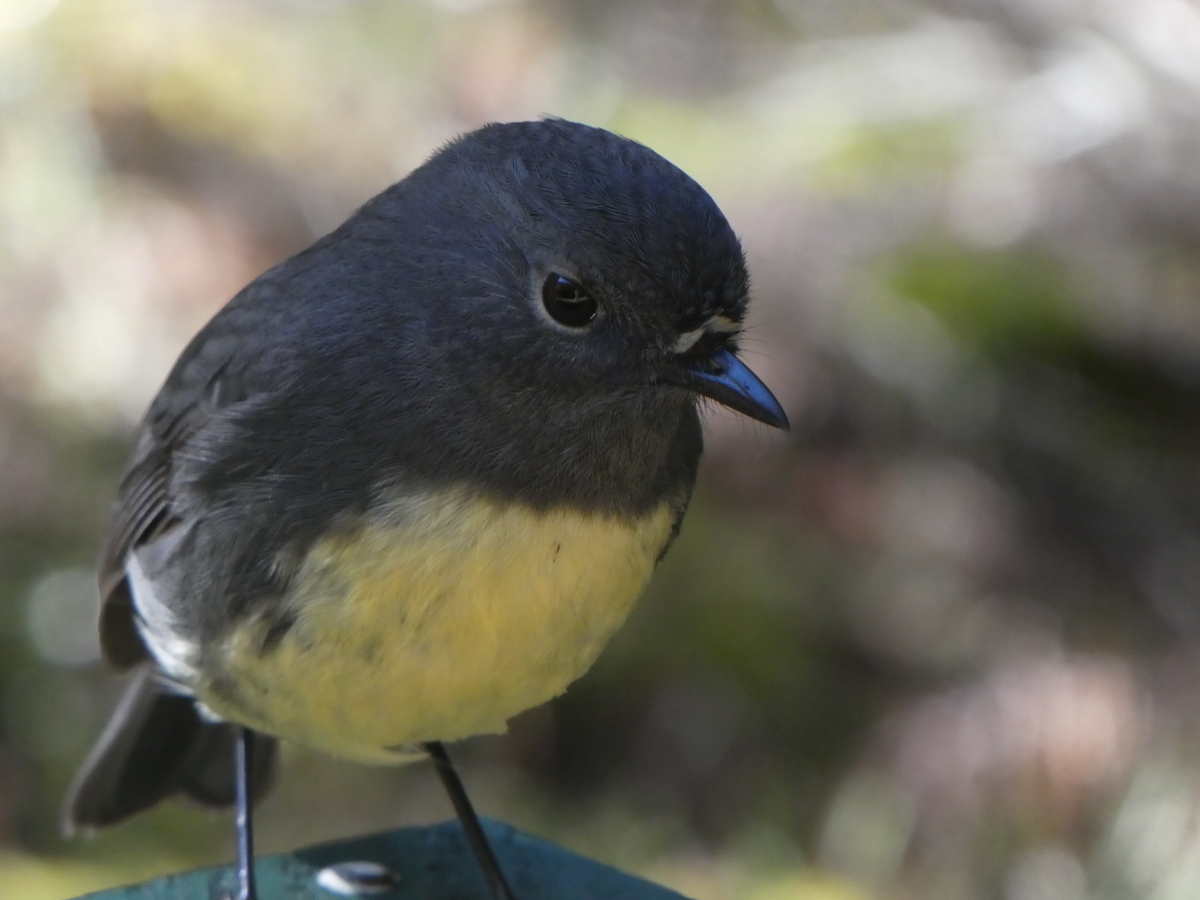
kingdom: Animalia
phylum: Chordata
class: Aves
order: Passeriformes
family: Petroicidae
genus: Petroica
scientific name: Petroica australis
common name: New zealand robin
